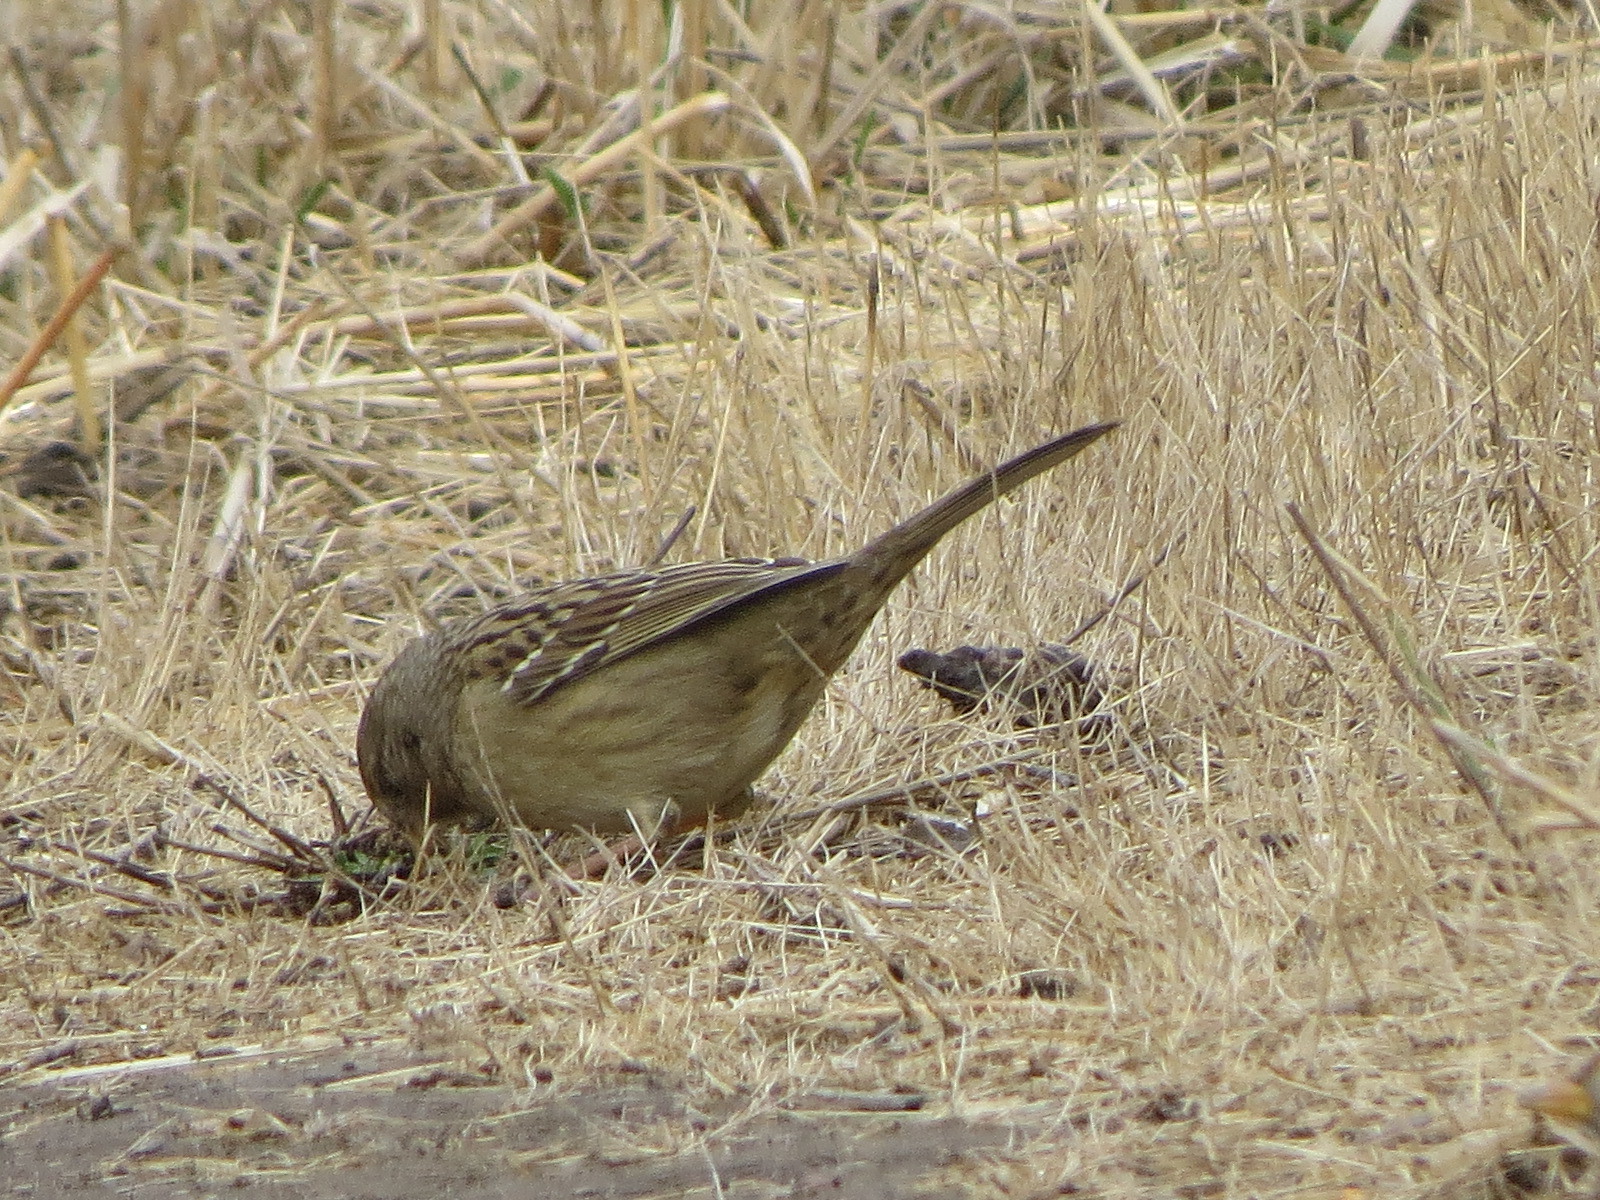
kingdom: Animalia
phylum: Chordata
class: Aves
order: Passeriformes
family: Passerellidae
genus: Zonotrichia
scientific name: Zonotrichia atricapilla
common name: Golden-crowned sparrow
